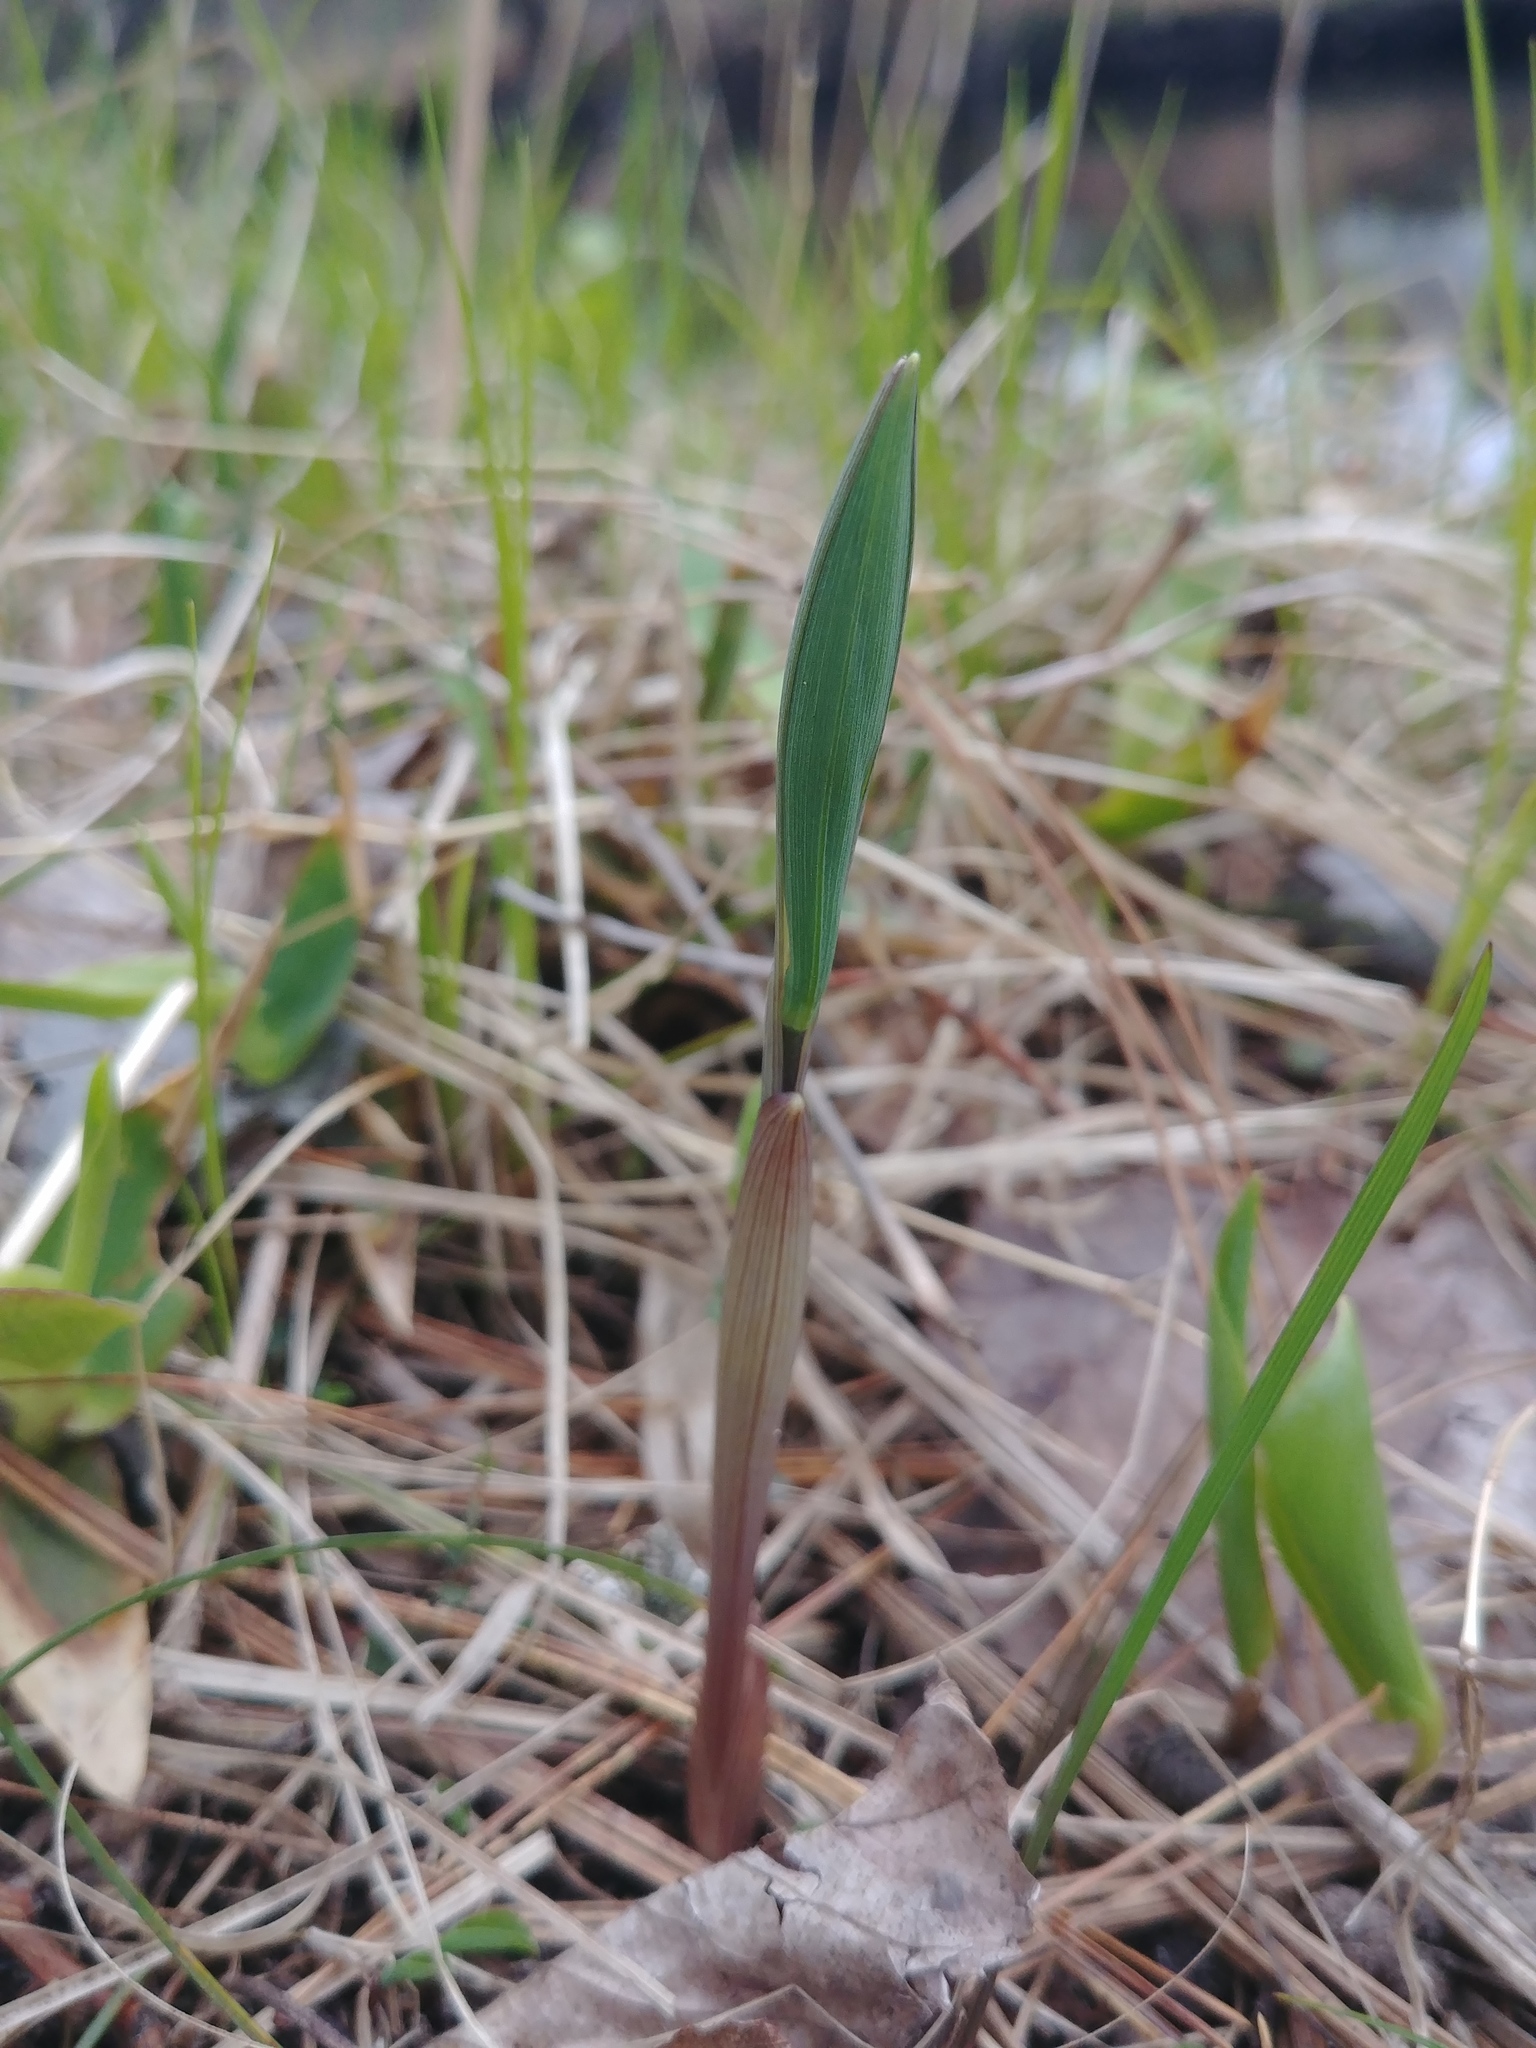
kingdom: Plantae
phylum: Tracheophyta
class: Liliopsida
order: Liliales
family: Colchicaceae
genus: Uvularia
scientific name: Uvularia sessilifolia
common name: Straw-lily
